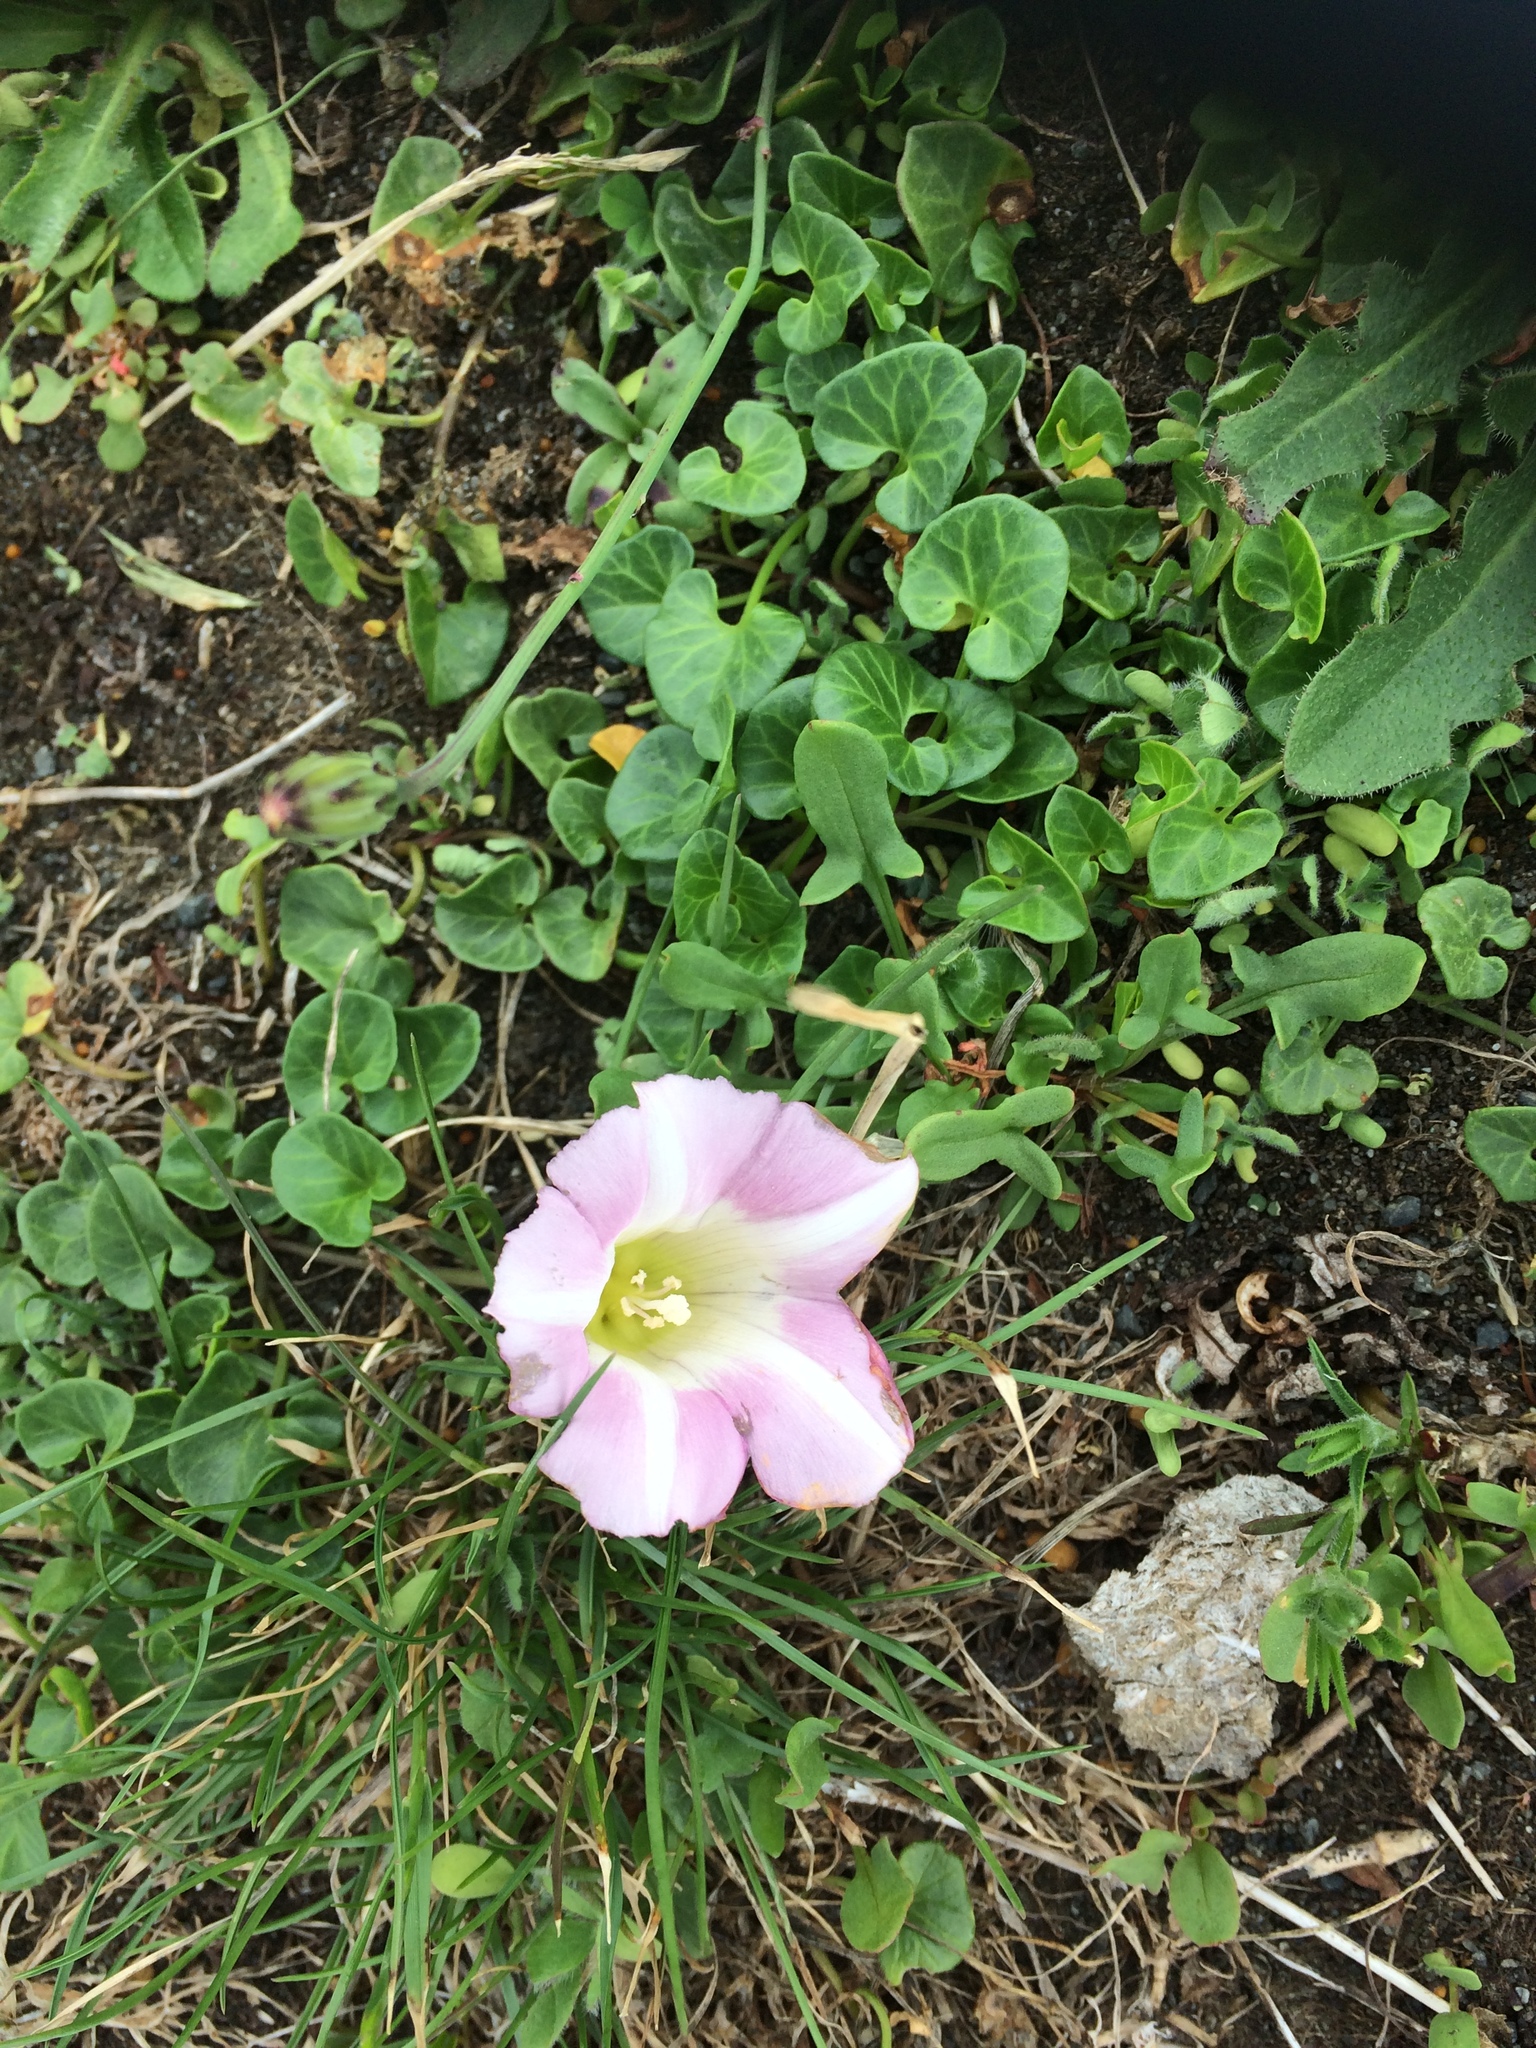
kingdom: Plantae
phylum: Tracheophyta
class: Magnoliopsida
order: Solanales
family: Convolvulaceae
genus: Calystegia
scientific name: Calystegia soldanella
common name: Sea bindweed
